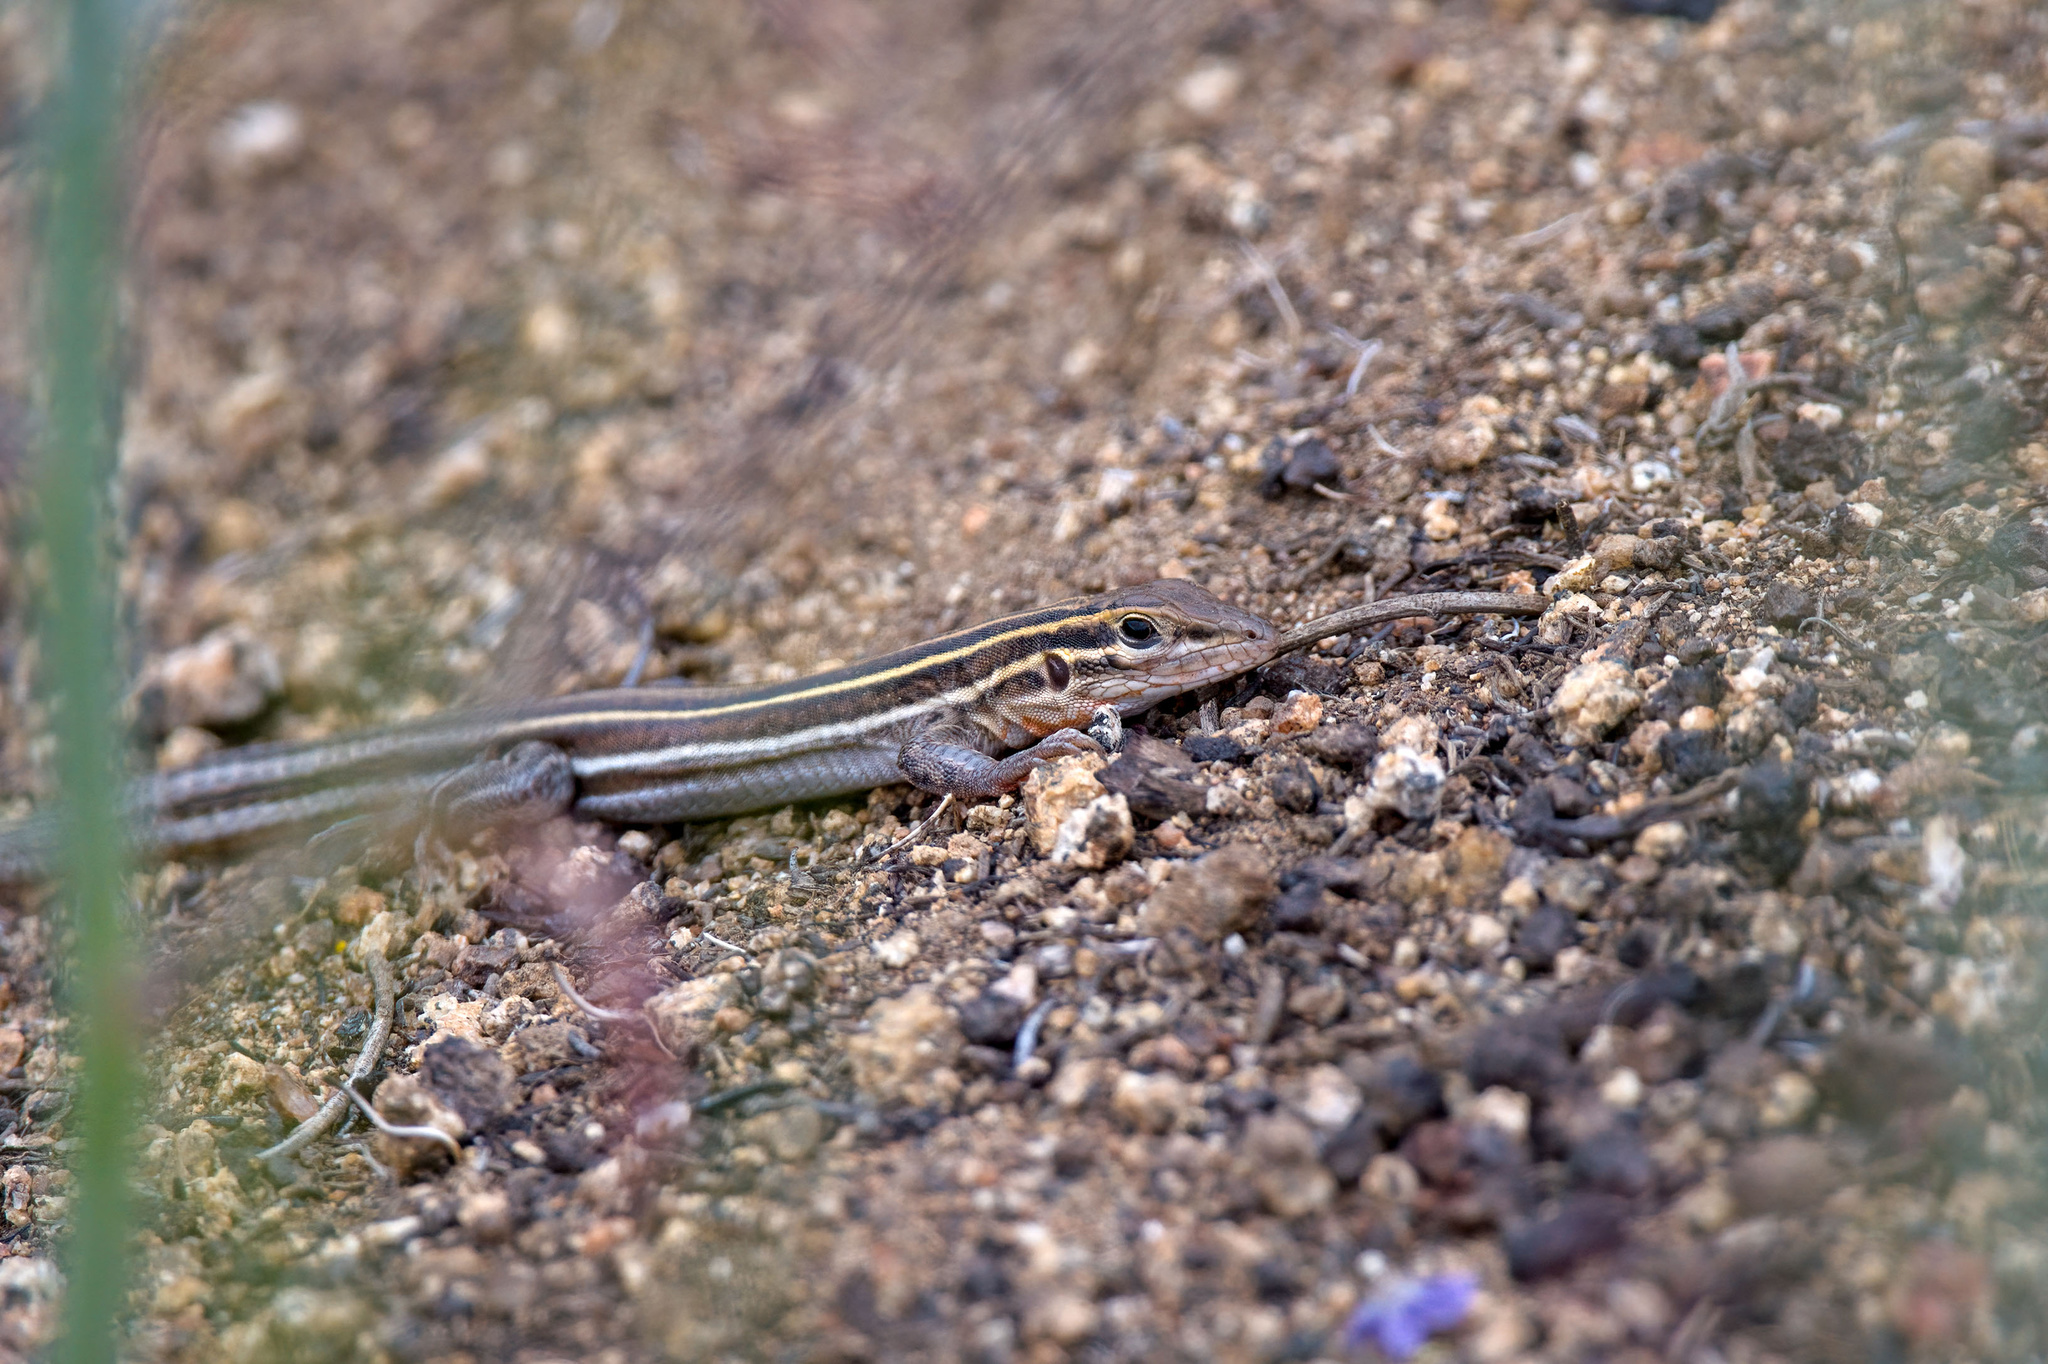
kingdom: Animalia
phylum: Chordata
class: Squamata
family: Teiidae
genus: Aspidoscelis
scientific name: Aspidoscelis hyperythrus
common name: Orange-throated race-runner
